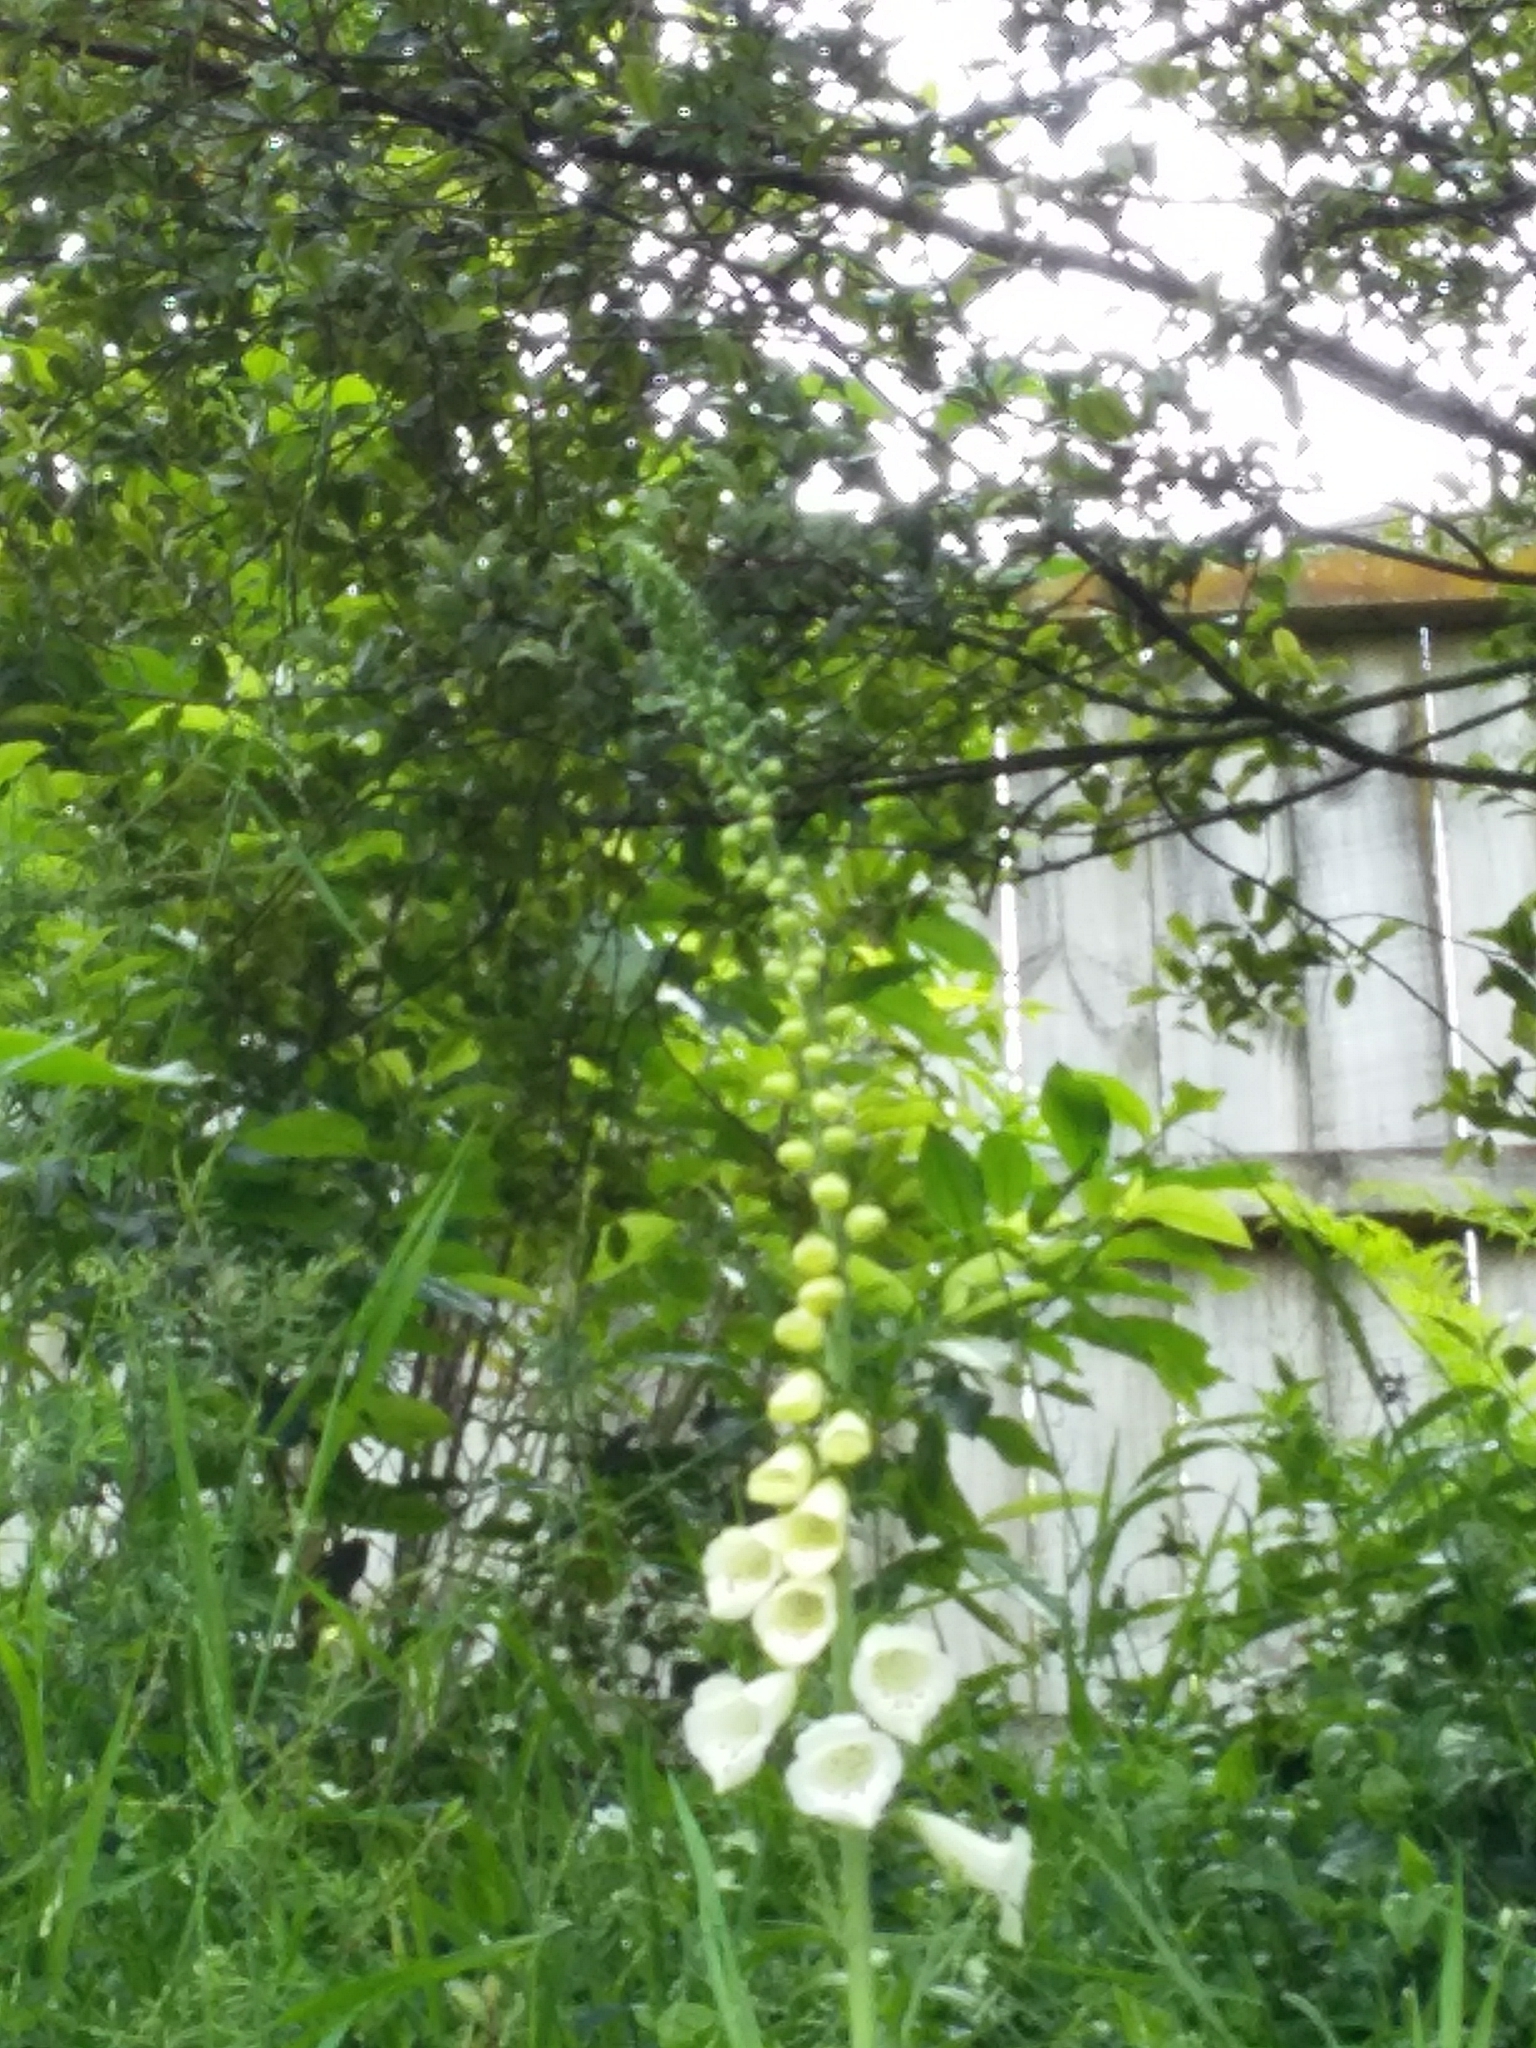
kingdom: Plantae
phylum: Tracheophyta
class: Magnoliopsida
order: Lamiales
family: Plantaginaceae
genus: Digitalis
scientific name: Digitalis purpurea
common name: Foxglove
